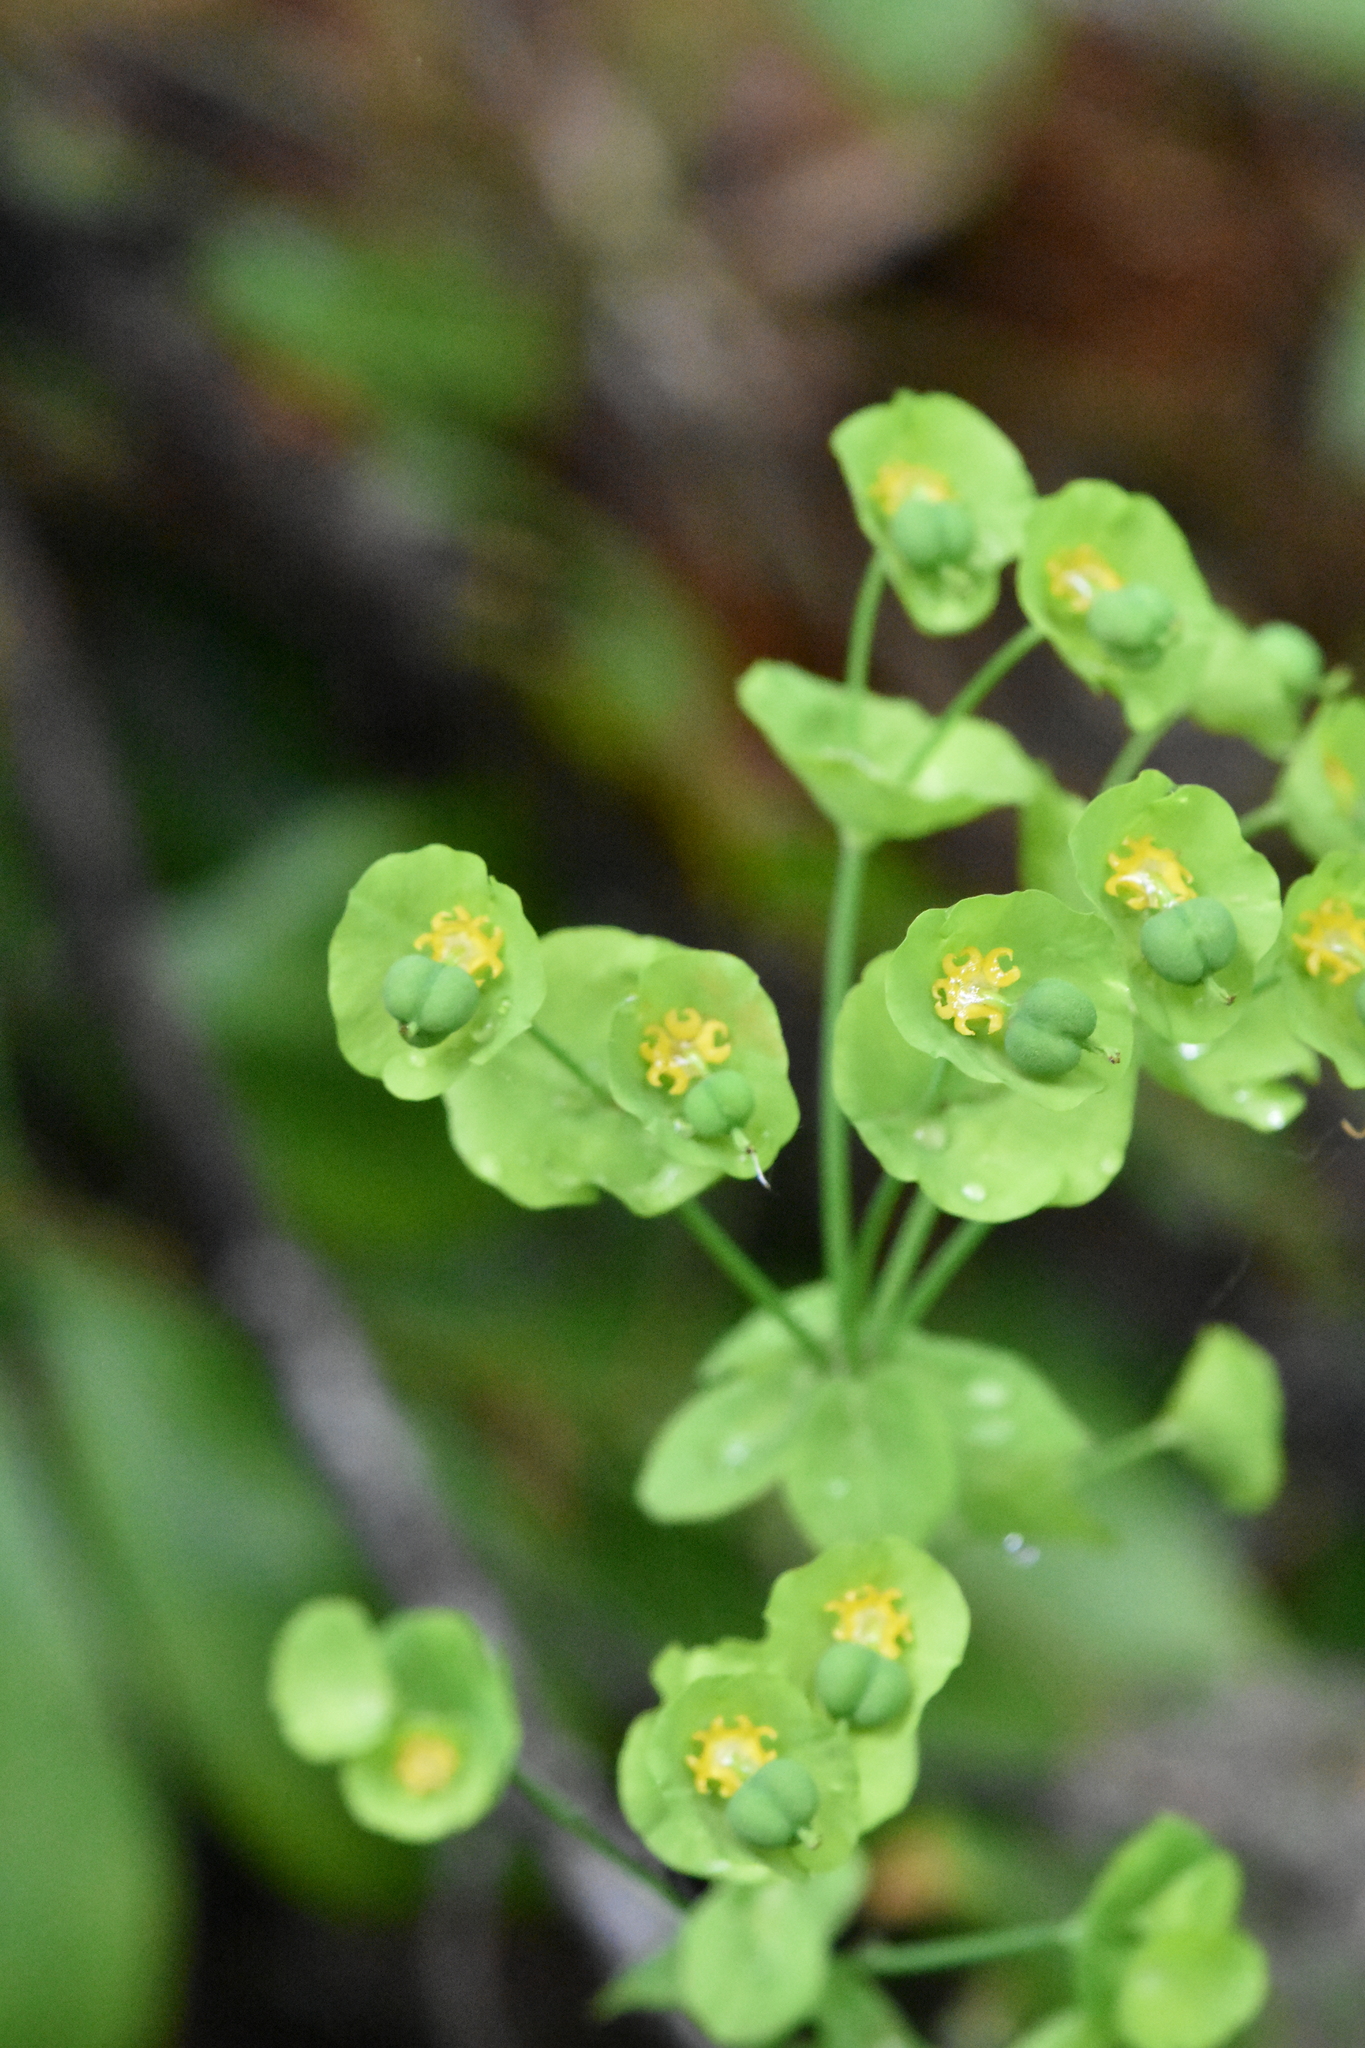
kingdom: Plantae
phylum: Tracheophyta
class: Magnoliopsida
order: Malpighiales
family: Euphorbiaceae
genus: Euphorbia
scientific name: Euphorbia amygdaloides
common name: Wood spurge
